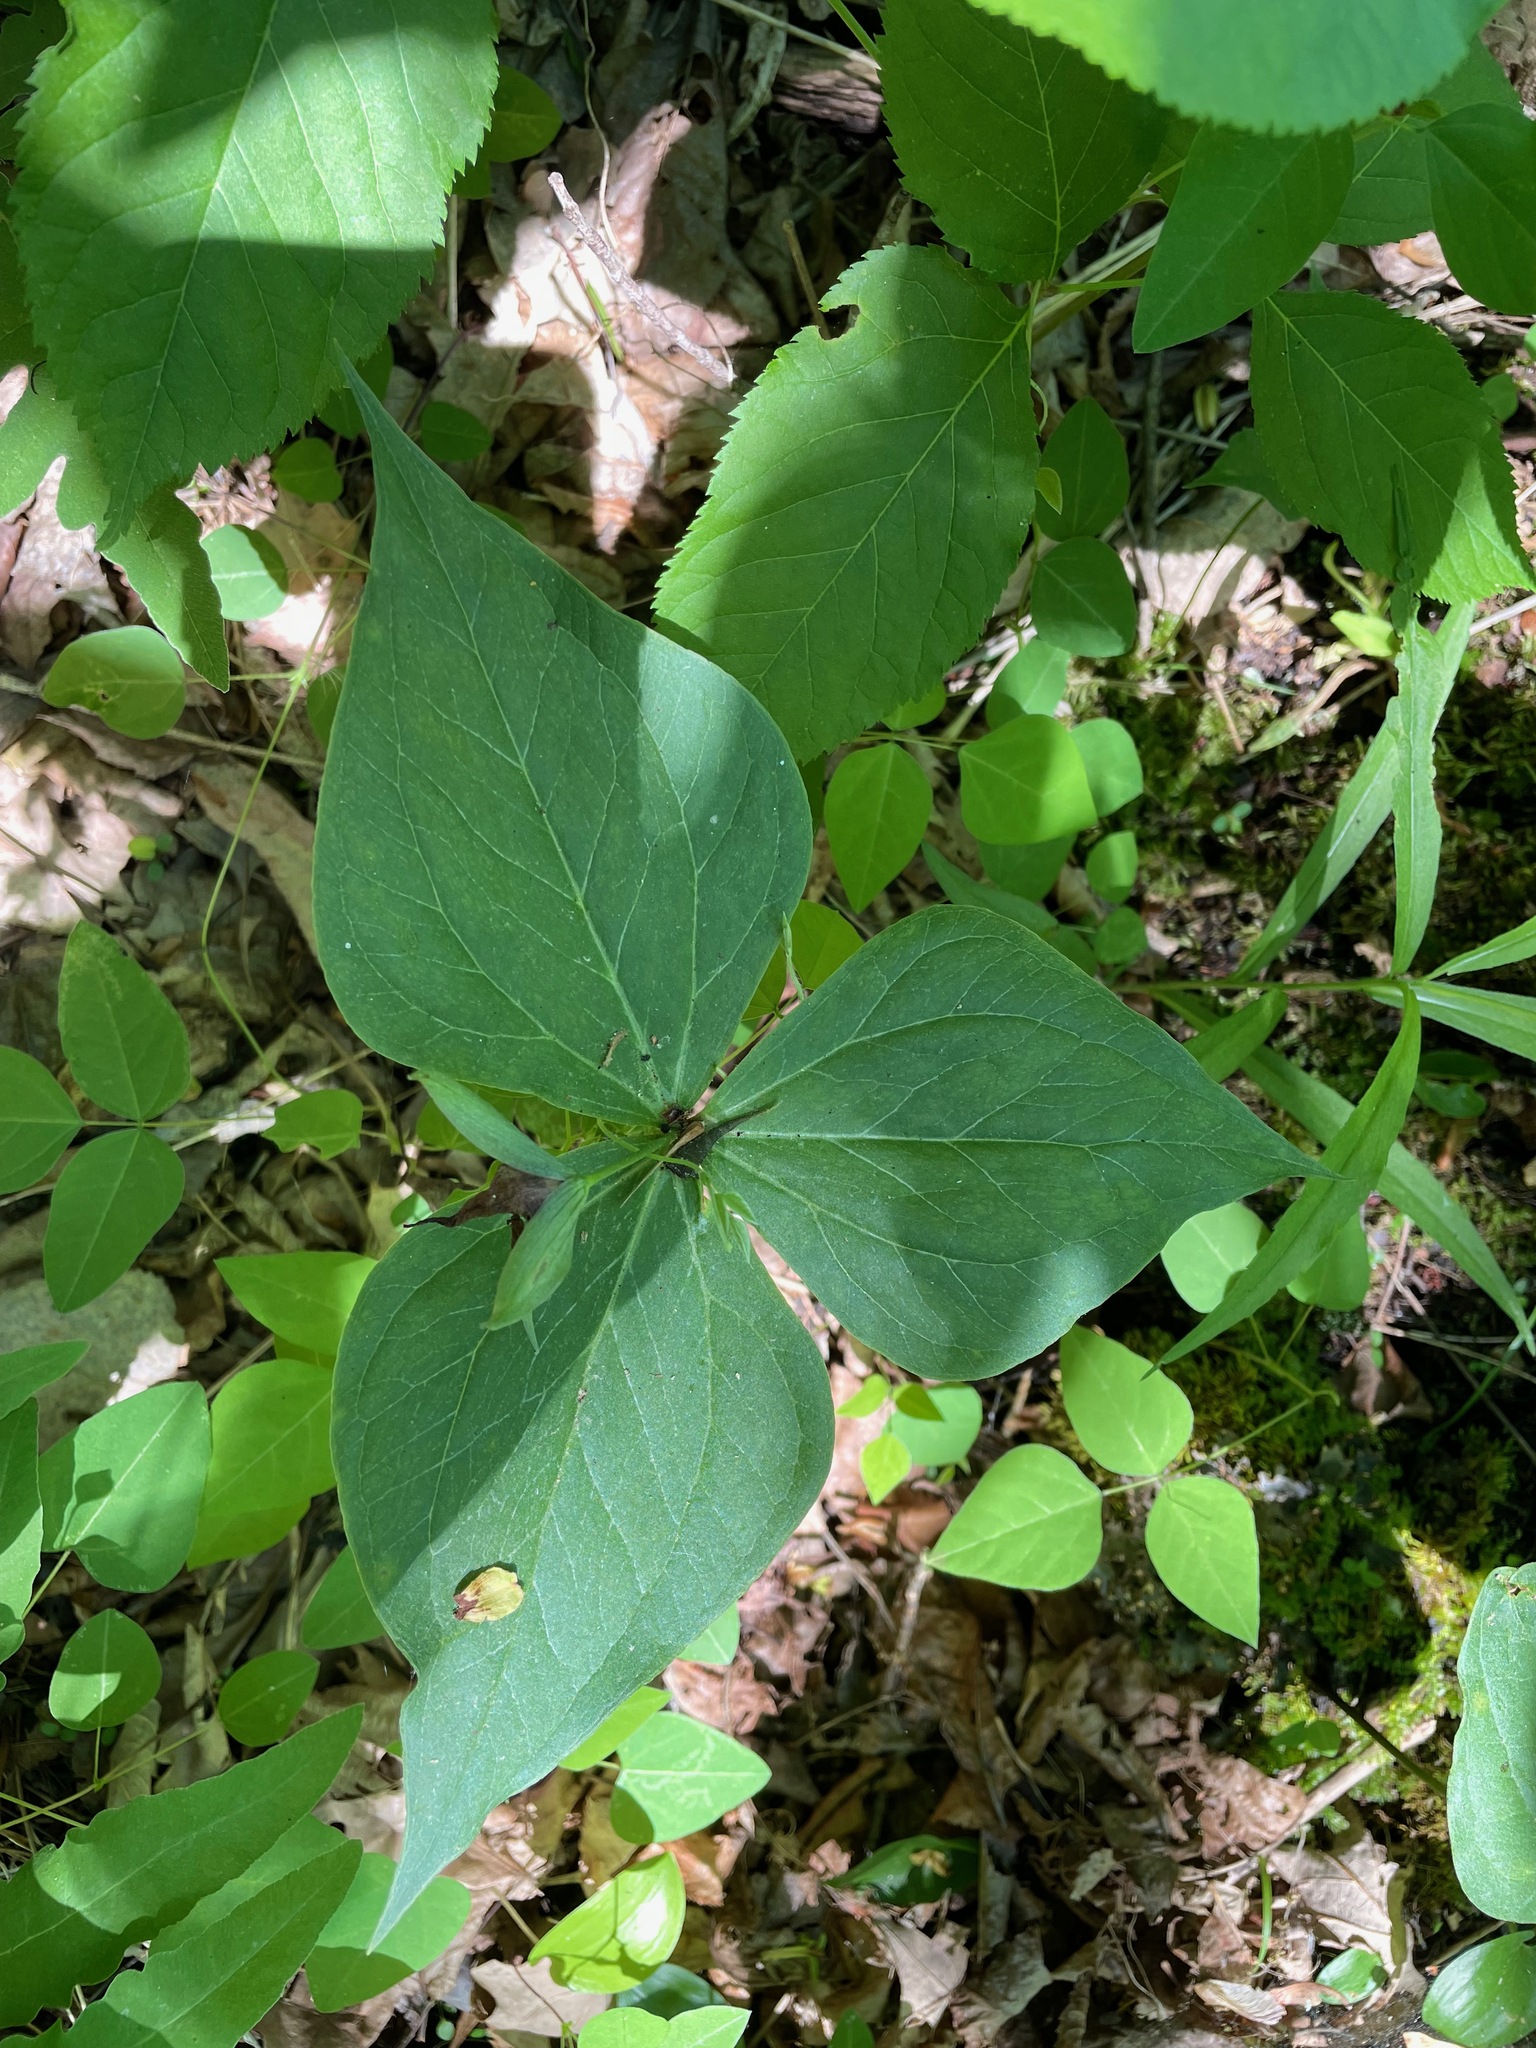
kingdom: Plantae
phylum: Tracheophyta
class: Liliopsida
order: Liliales
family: Melanthiaceae
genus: Trillium
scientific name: Trillium erectum
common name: Purple trillium
